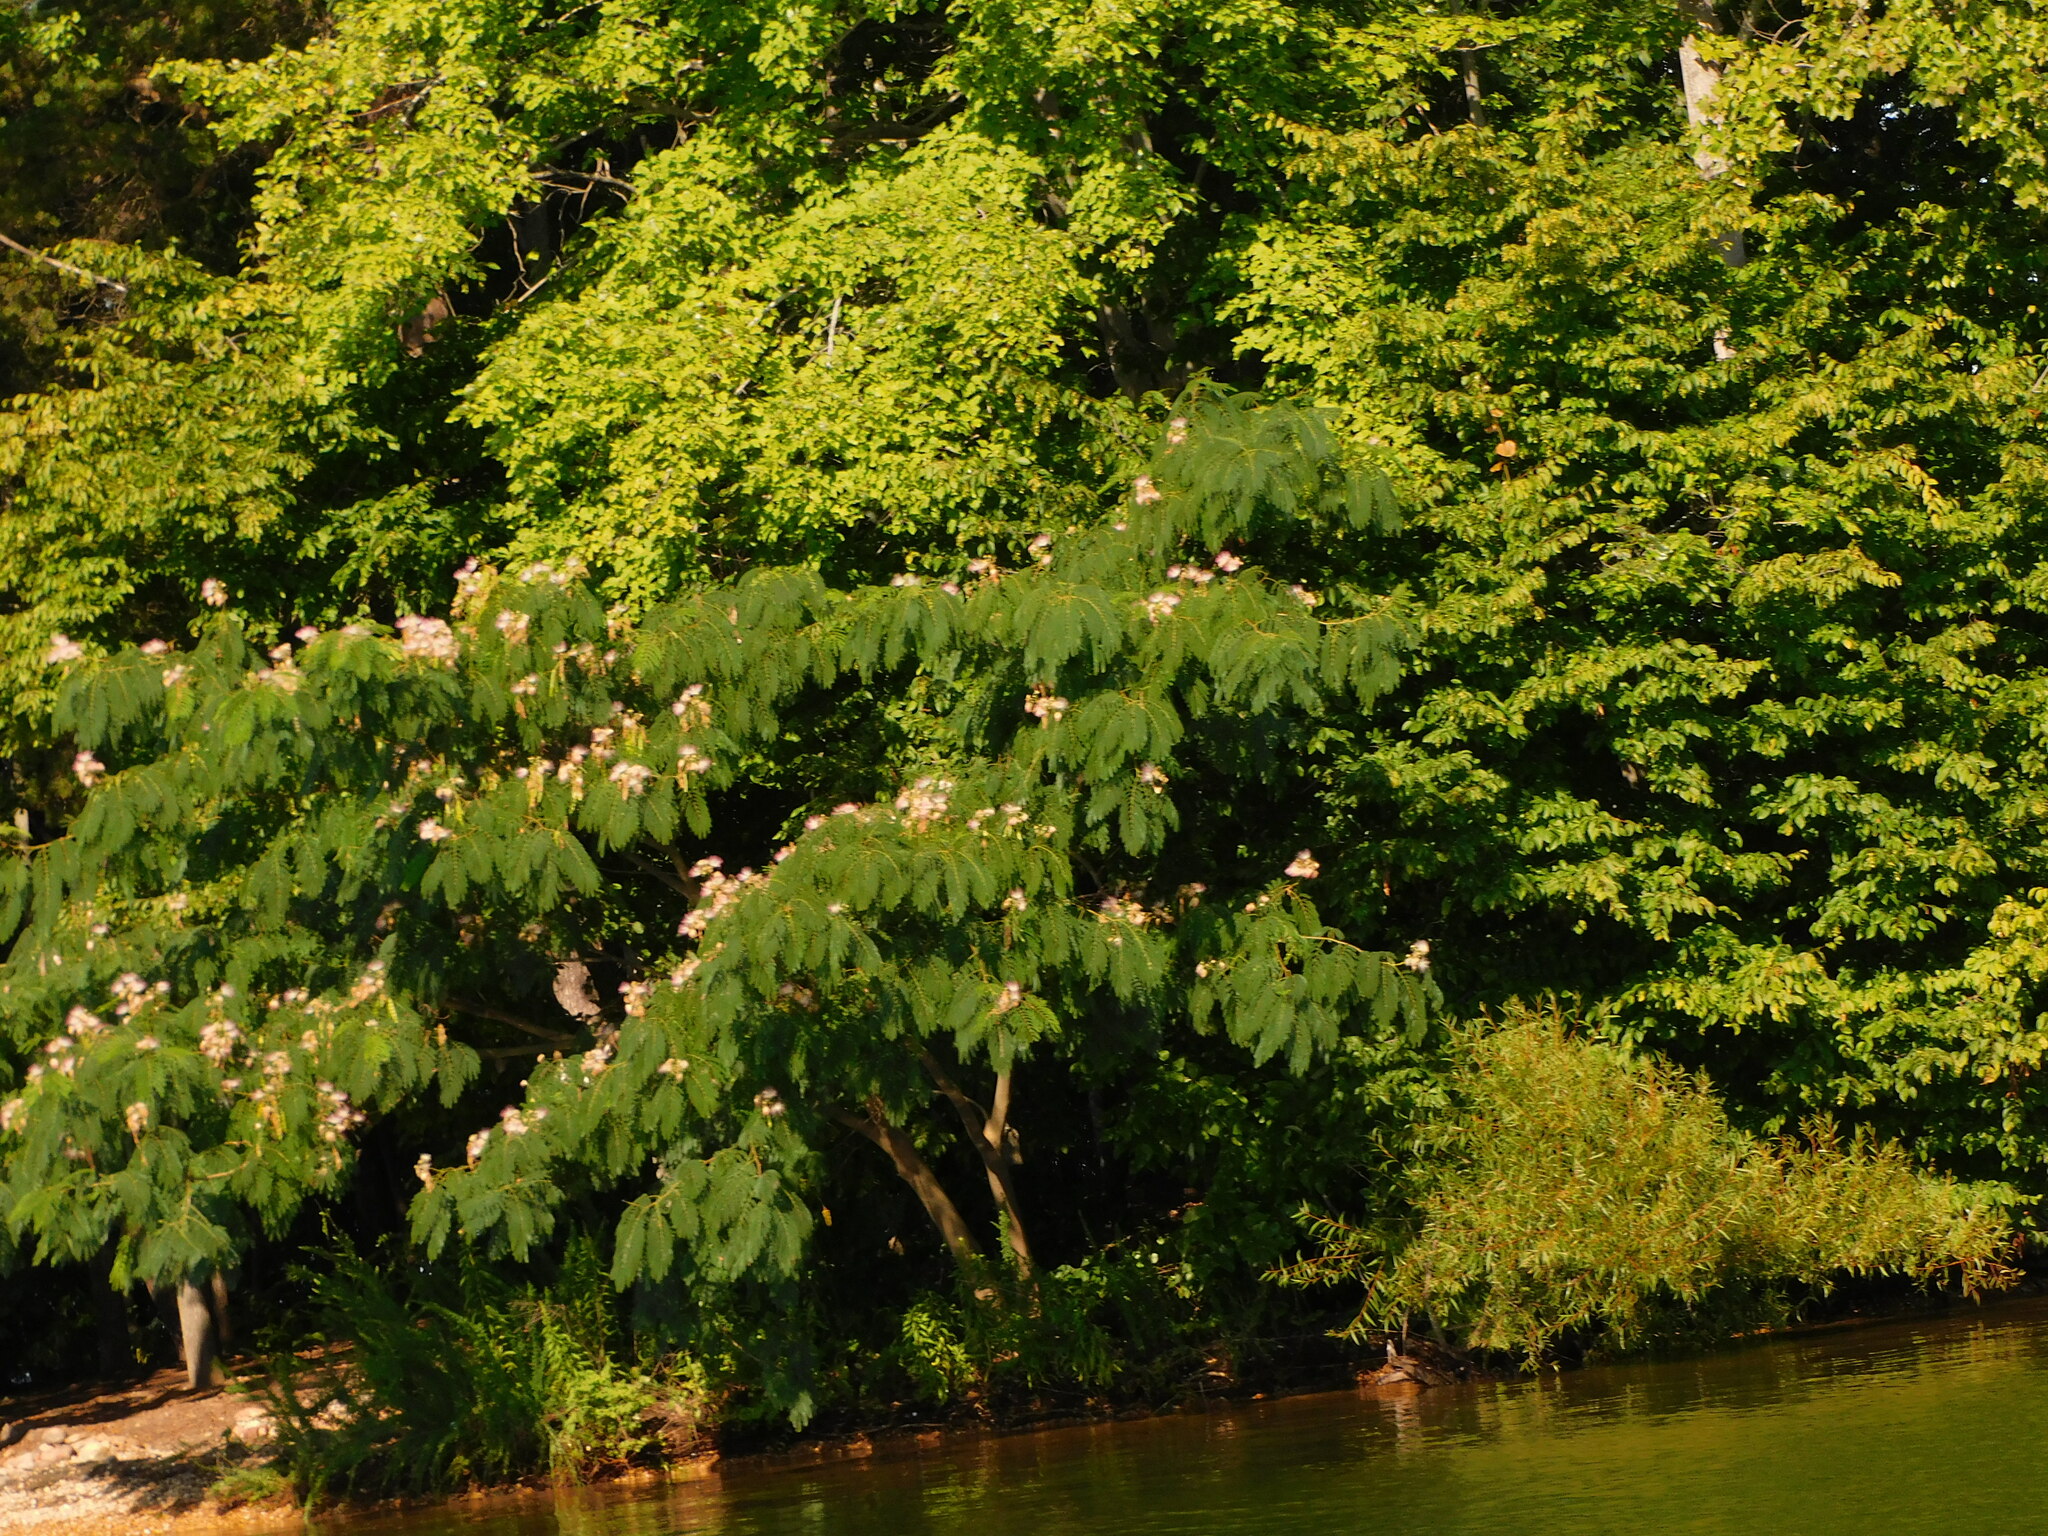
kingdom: Plantae
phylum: Tracheophyta
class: Magnoliopsida
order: Fabales
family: Fabaceae
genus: Albizia
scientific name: Albizia julibrissin
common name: Silktree
